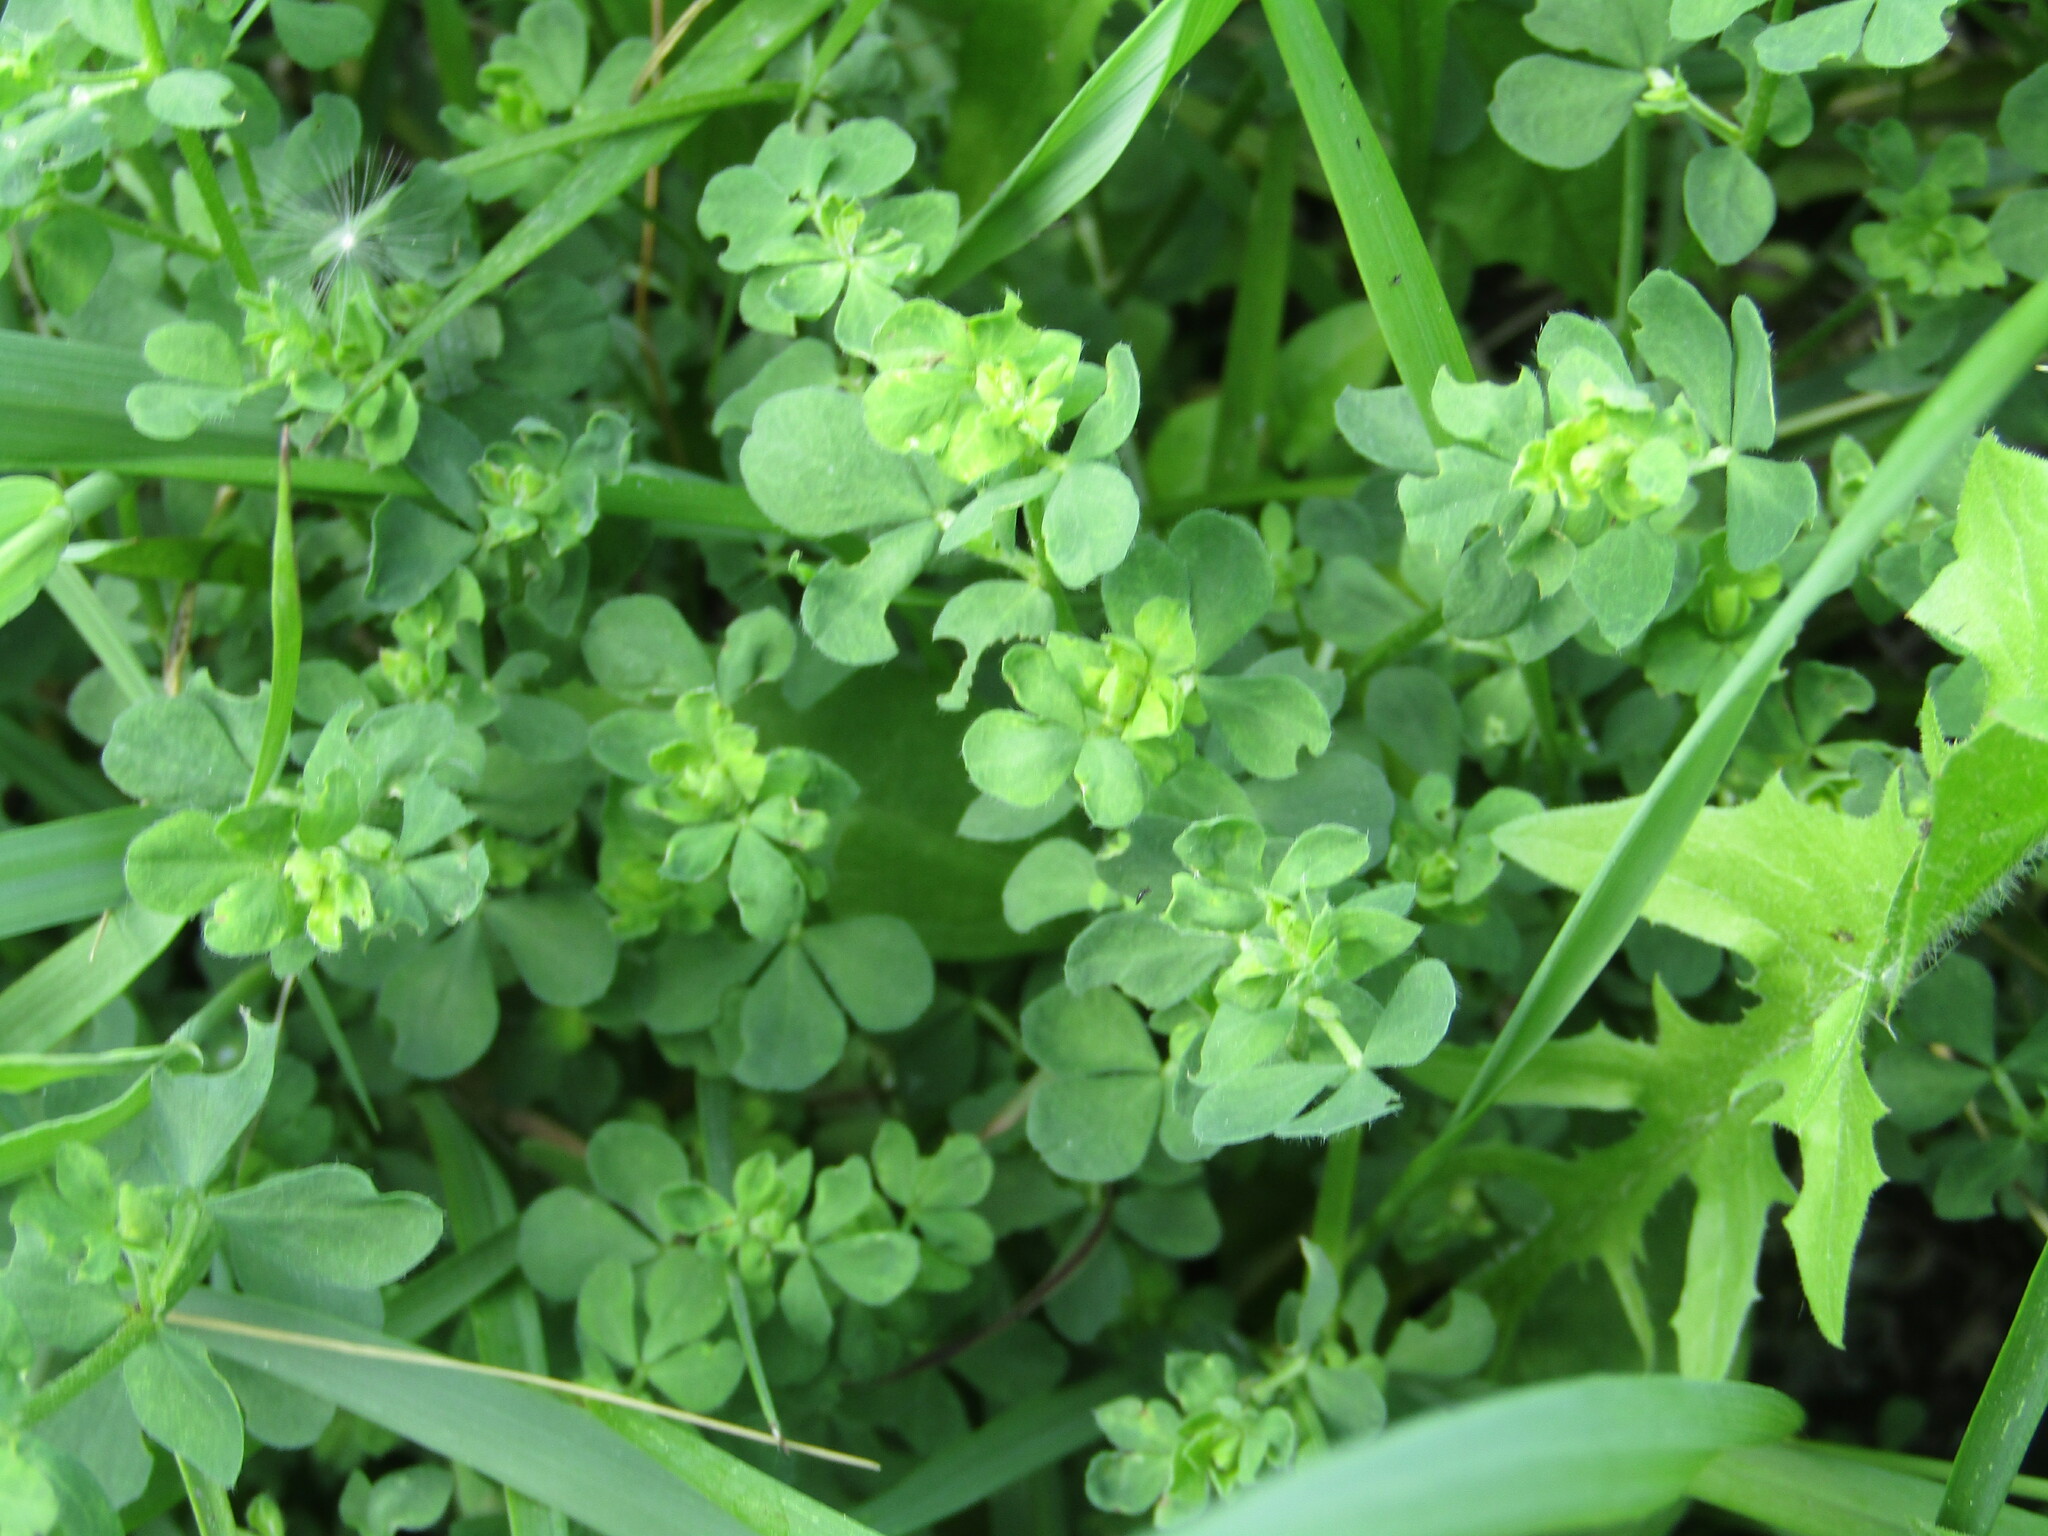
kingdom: Plantae
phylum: Tracheophyta
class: Magnoliopsida
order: Fabales
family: Fabaceae
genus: Lotus
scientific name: Lotus corniculatus
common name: Common bird's-foot-trefoil
